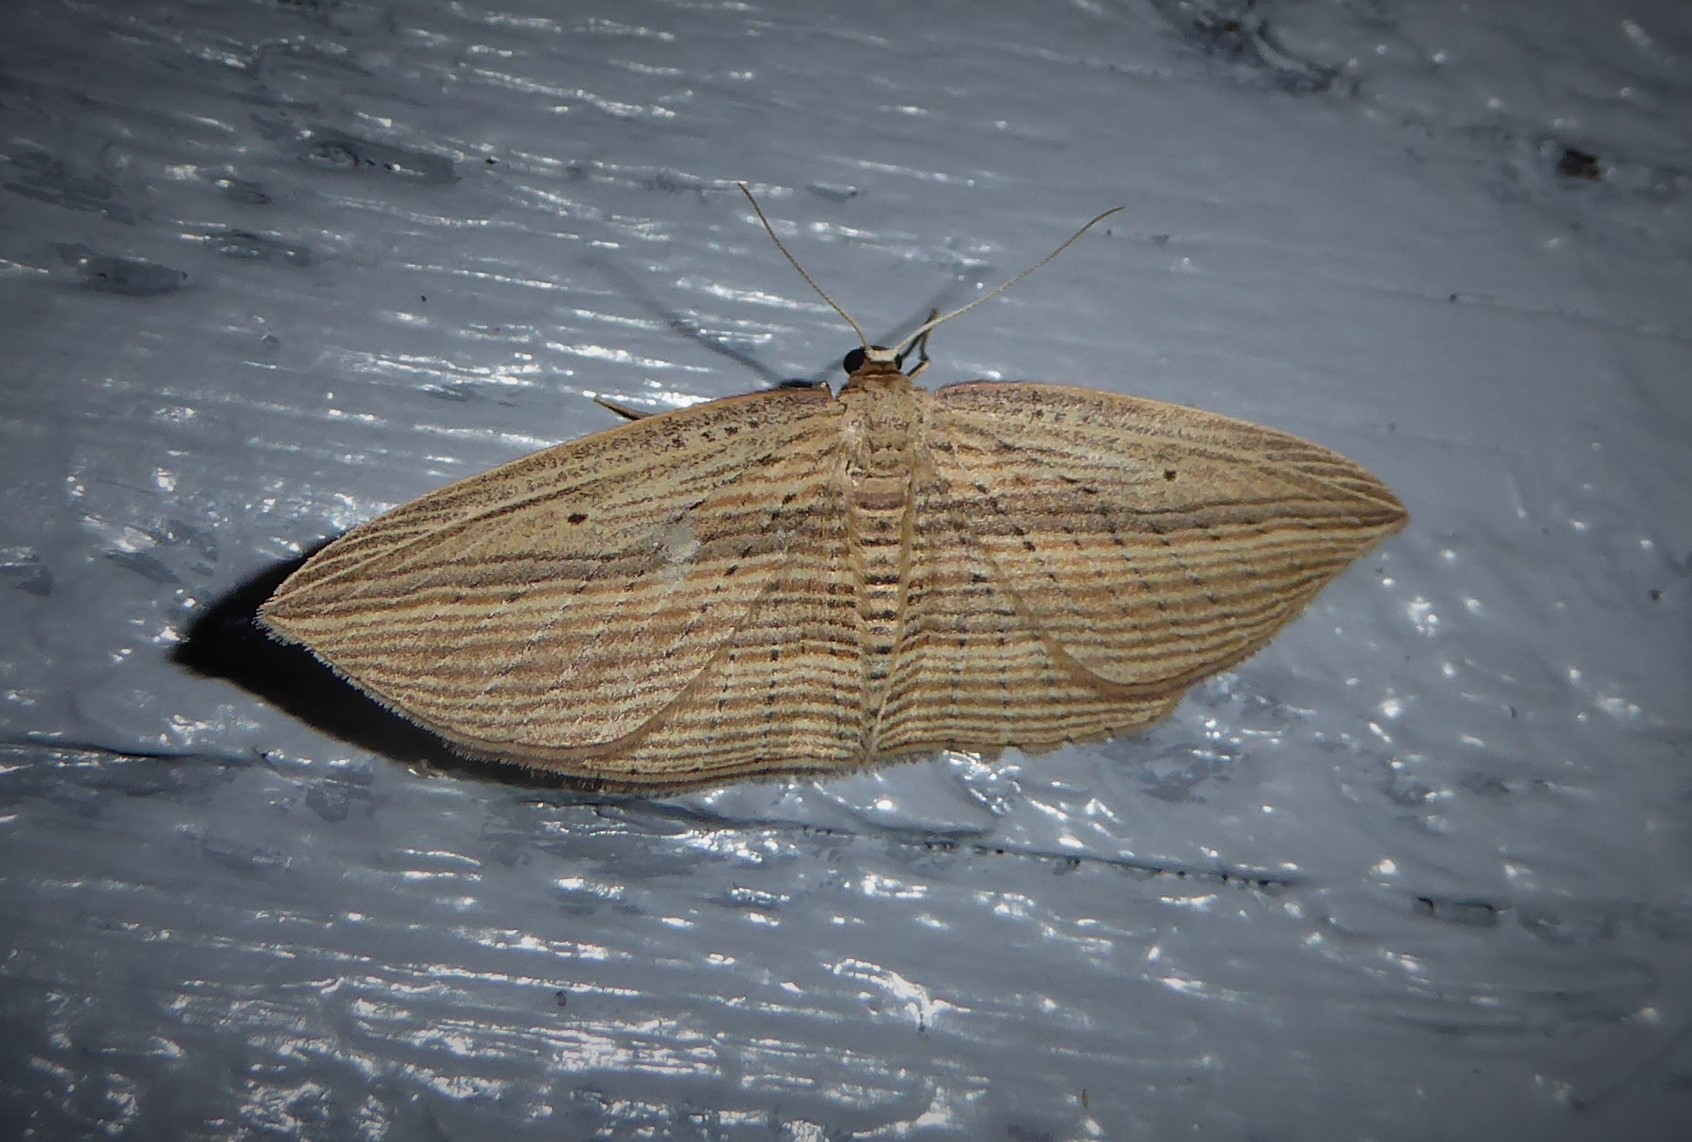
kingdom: Animalia
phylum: Arthropoda
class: Insecta
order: Lepidoptera
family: Geometridae
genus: Epiphryne
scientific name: Epiphryne verriculata
